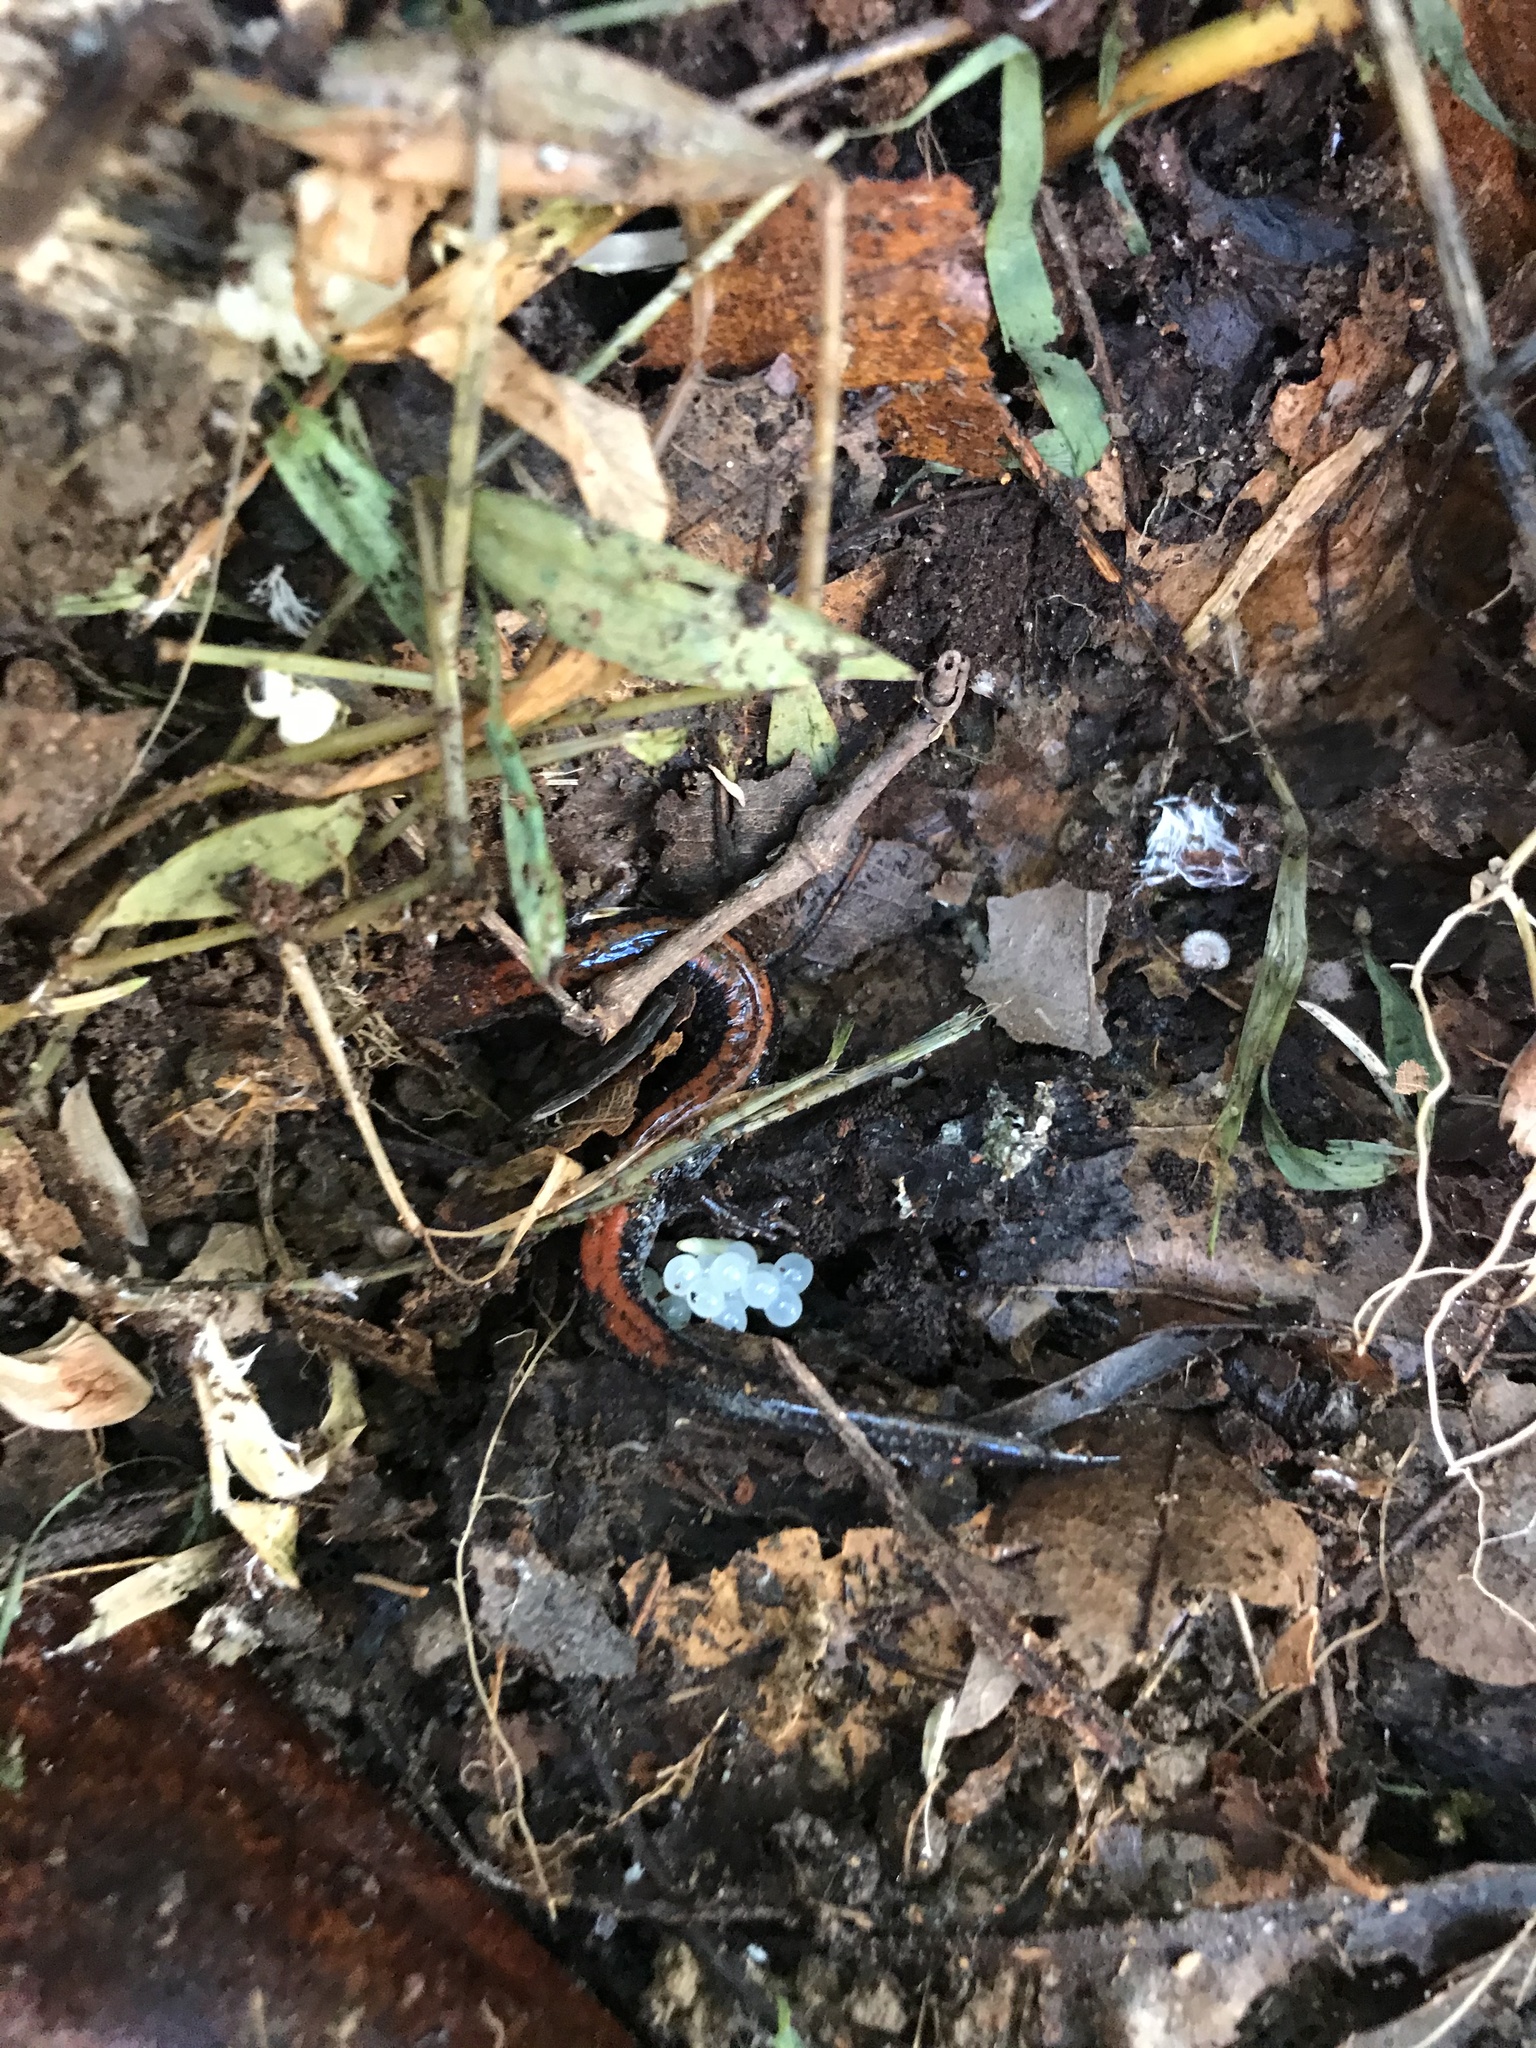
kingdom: Animalia
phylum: Chordata
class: Amphibia
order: Caudata
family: Plethodontidae
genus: Plethodon
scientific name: Plethodon cinereus
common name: Redback salamander
